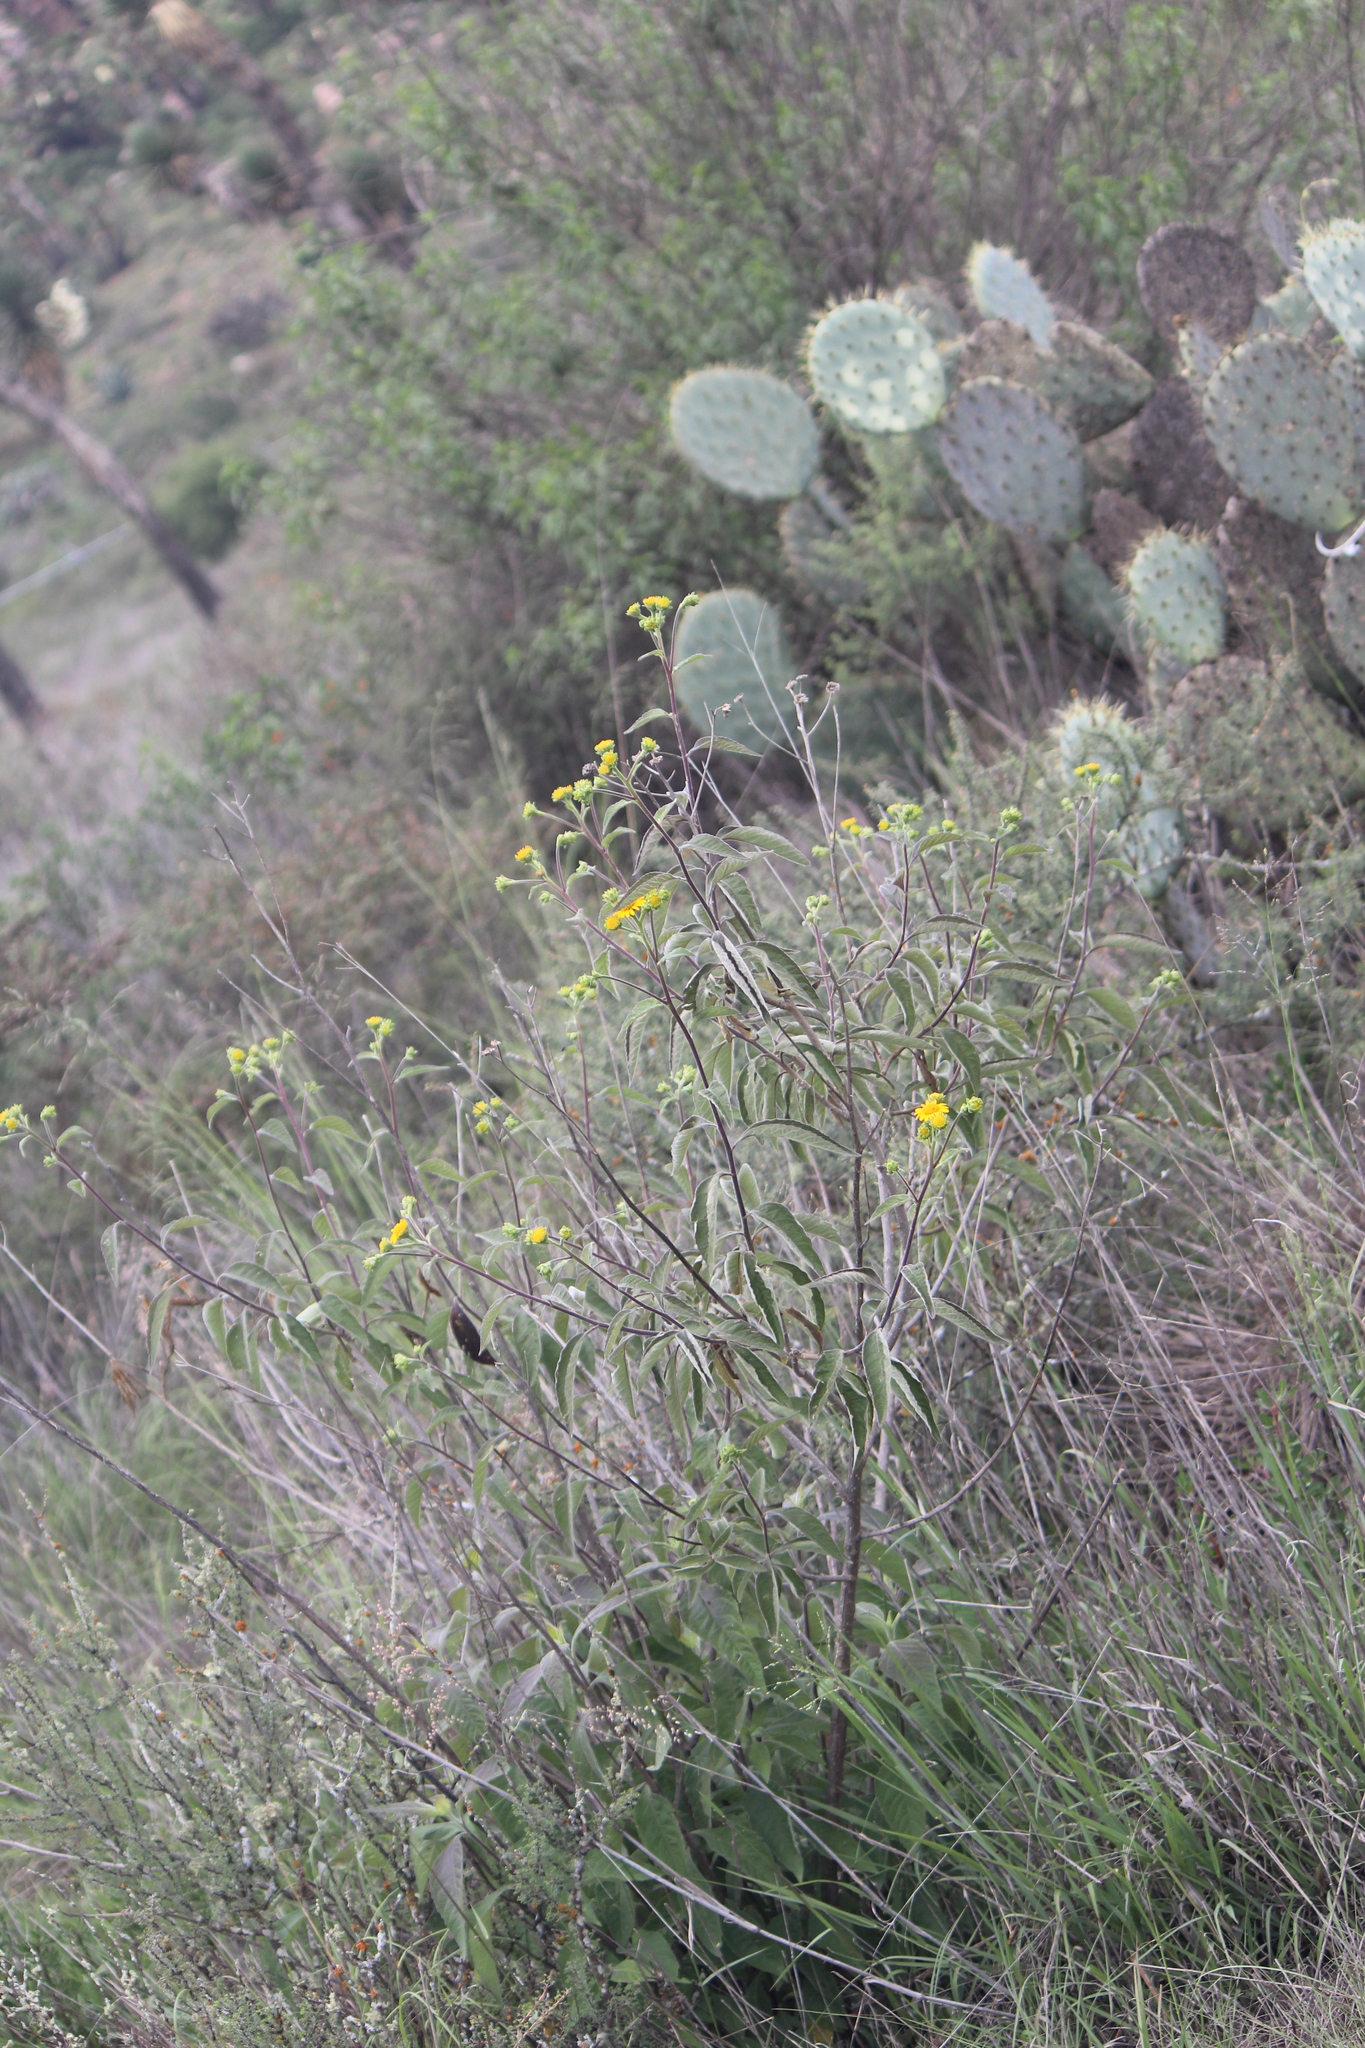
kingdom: Plantae
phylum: Tracheophyta
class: Magnoliopsida
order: Asterales
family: Asteraceae
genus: Verbesina
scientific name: Verbesina robinsonii
